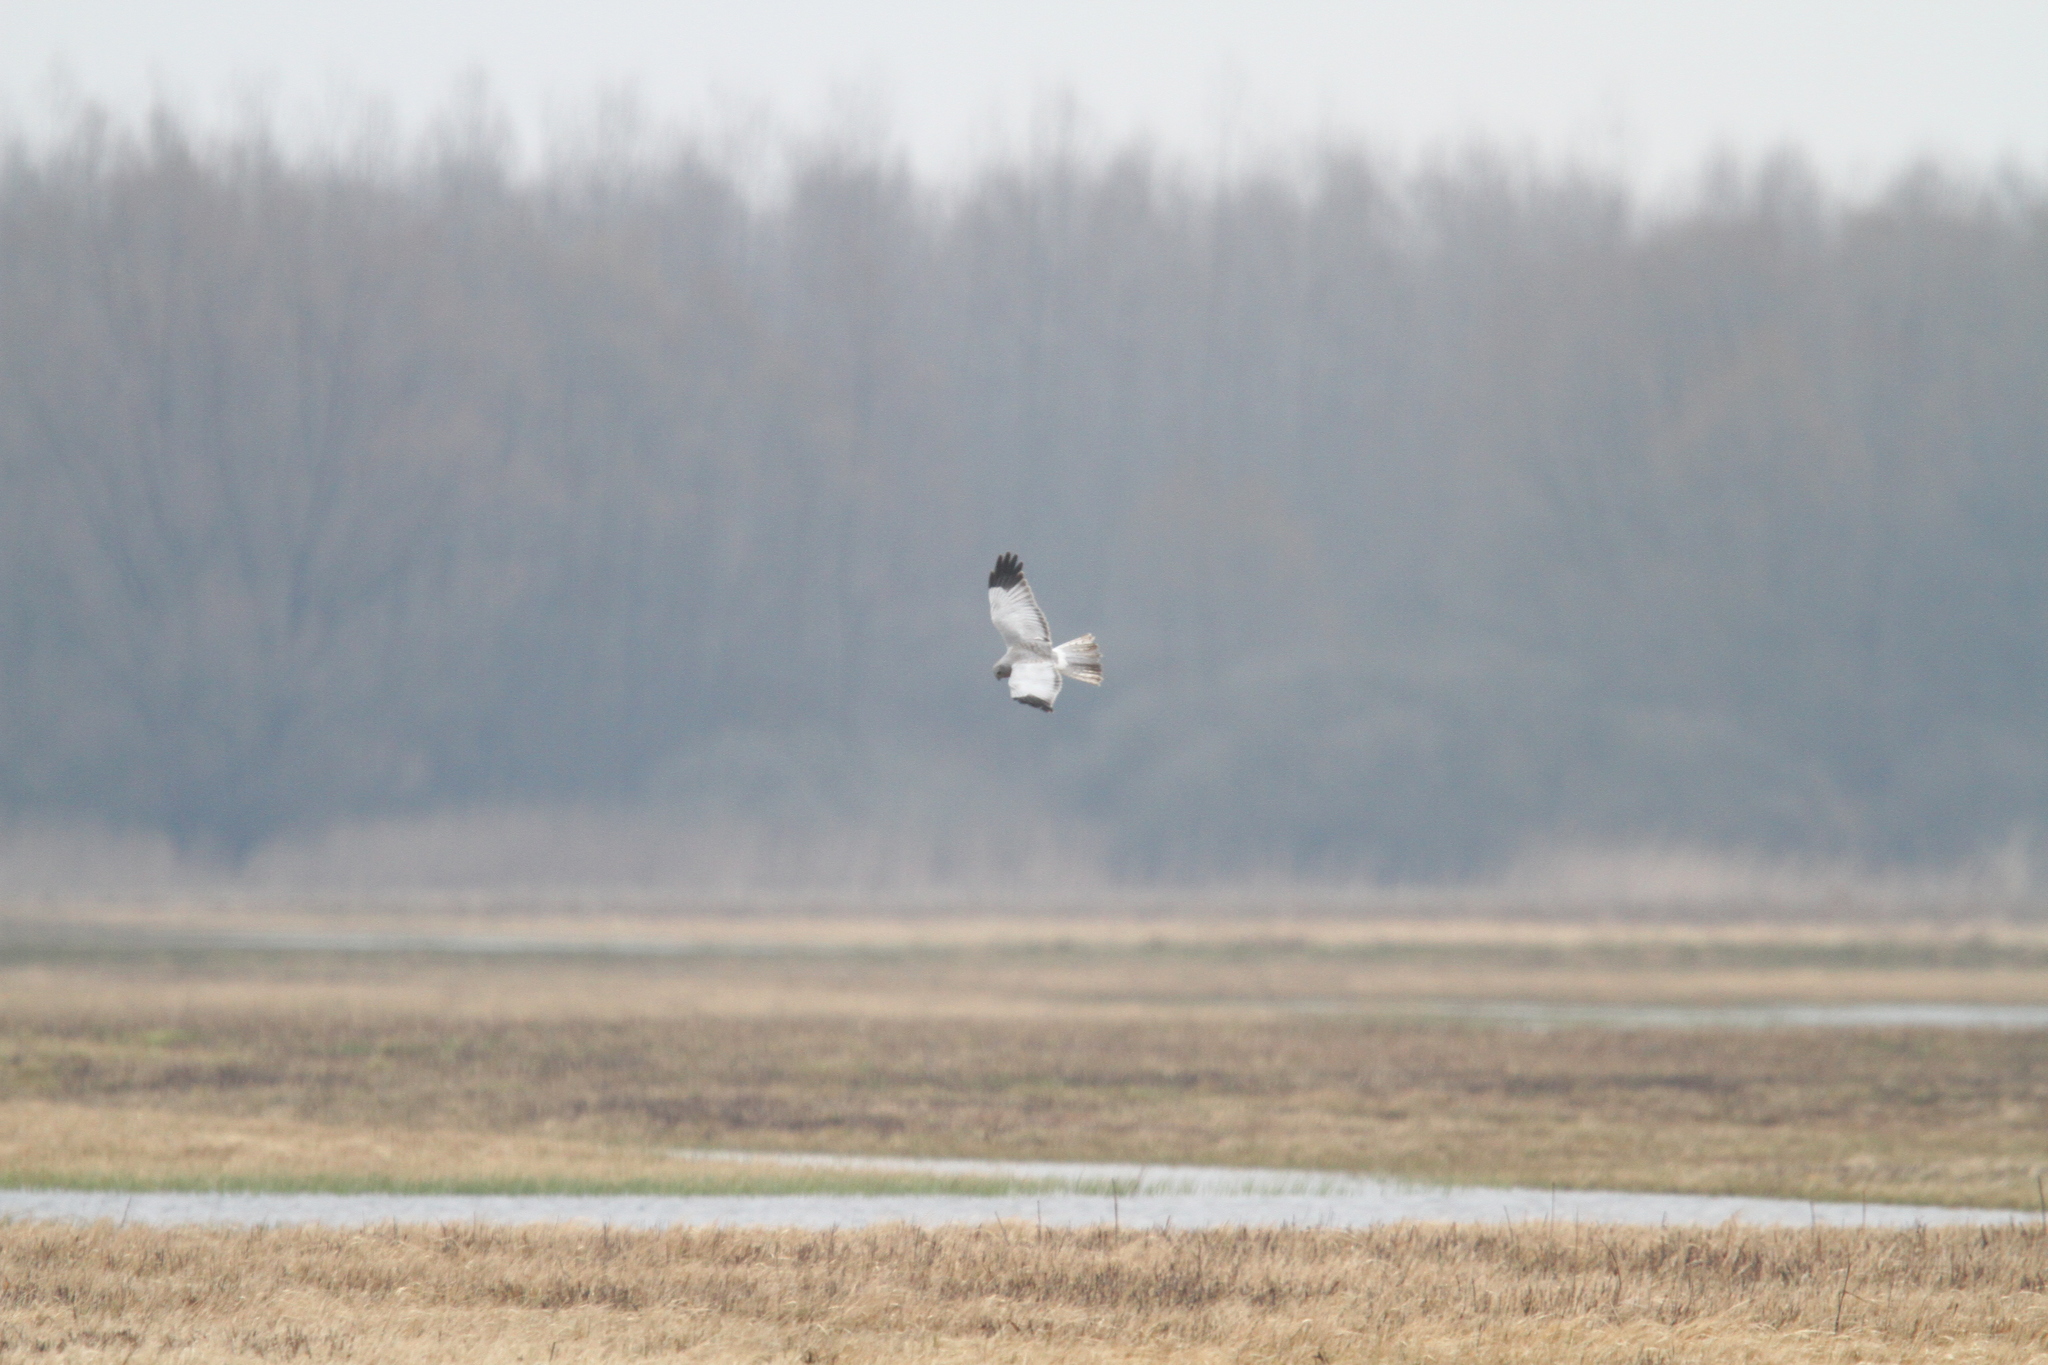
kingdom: Animalia
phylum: Chordata
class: Aves
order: Accipitriformes
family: Accipitridae
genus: Circus
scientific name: Circus cyaneus
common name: Hen harrier
